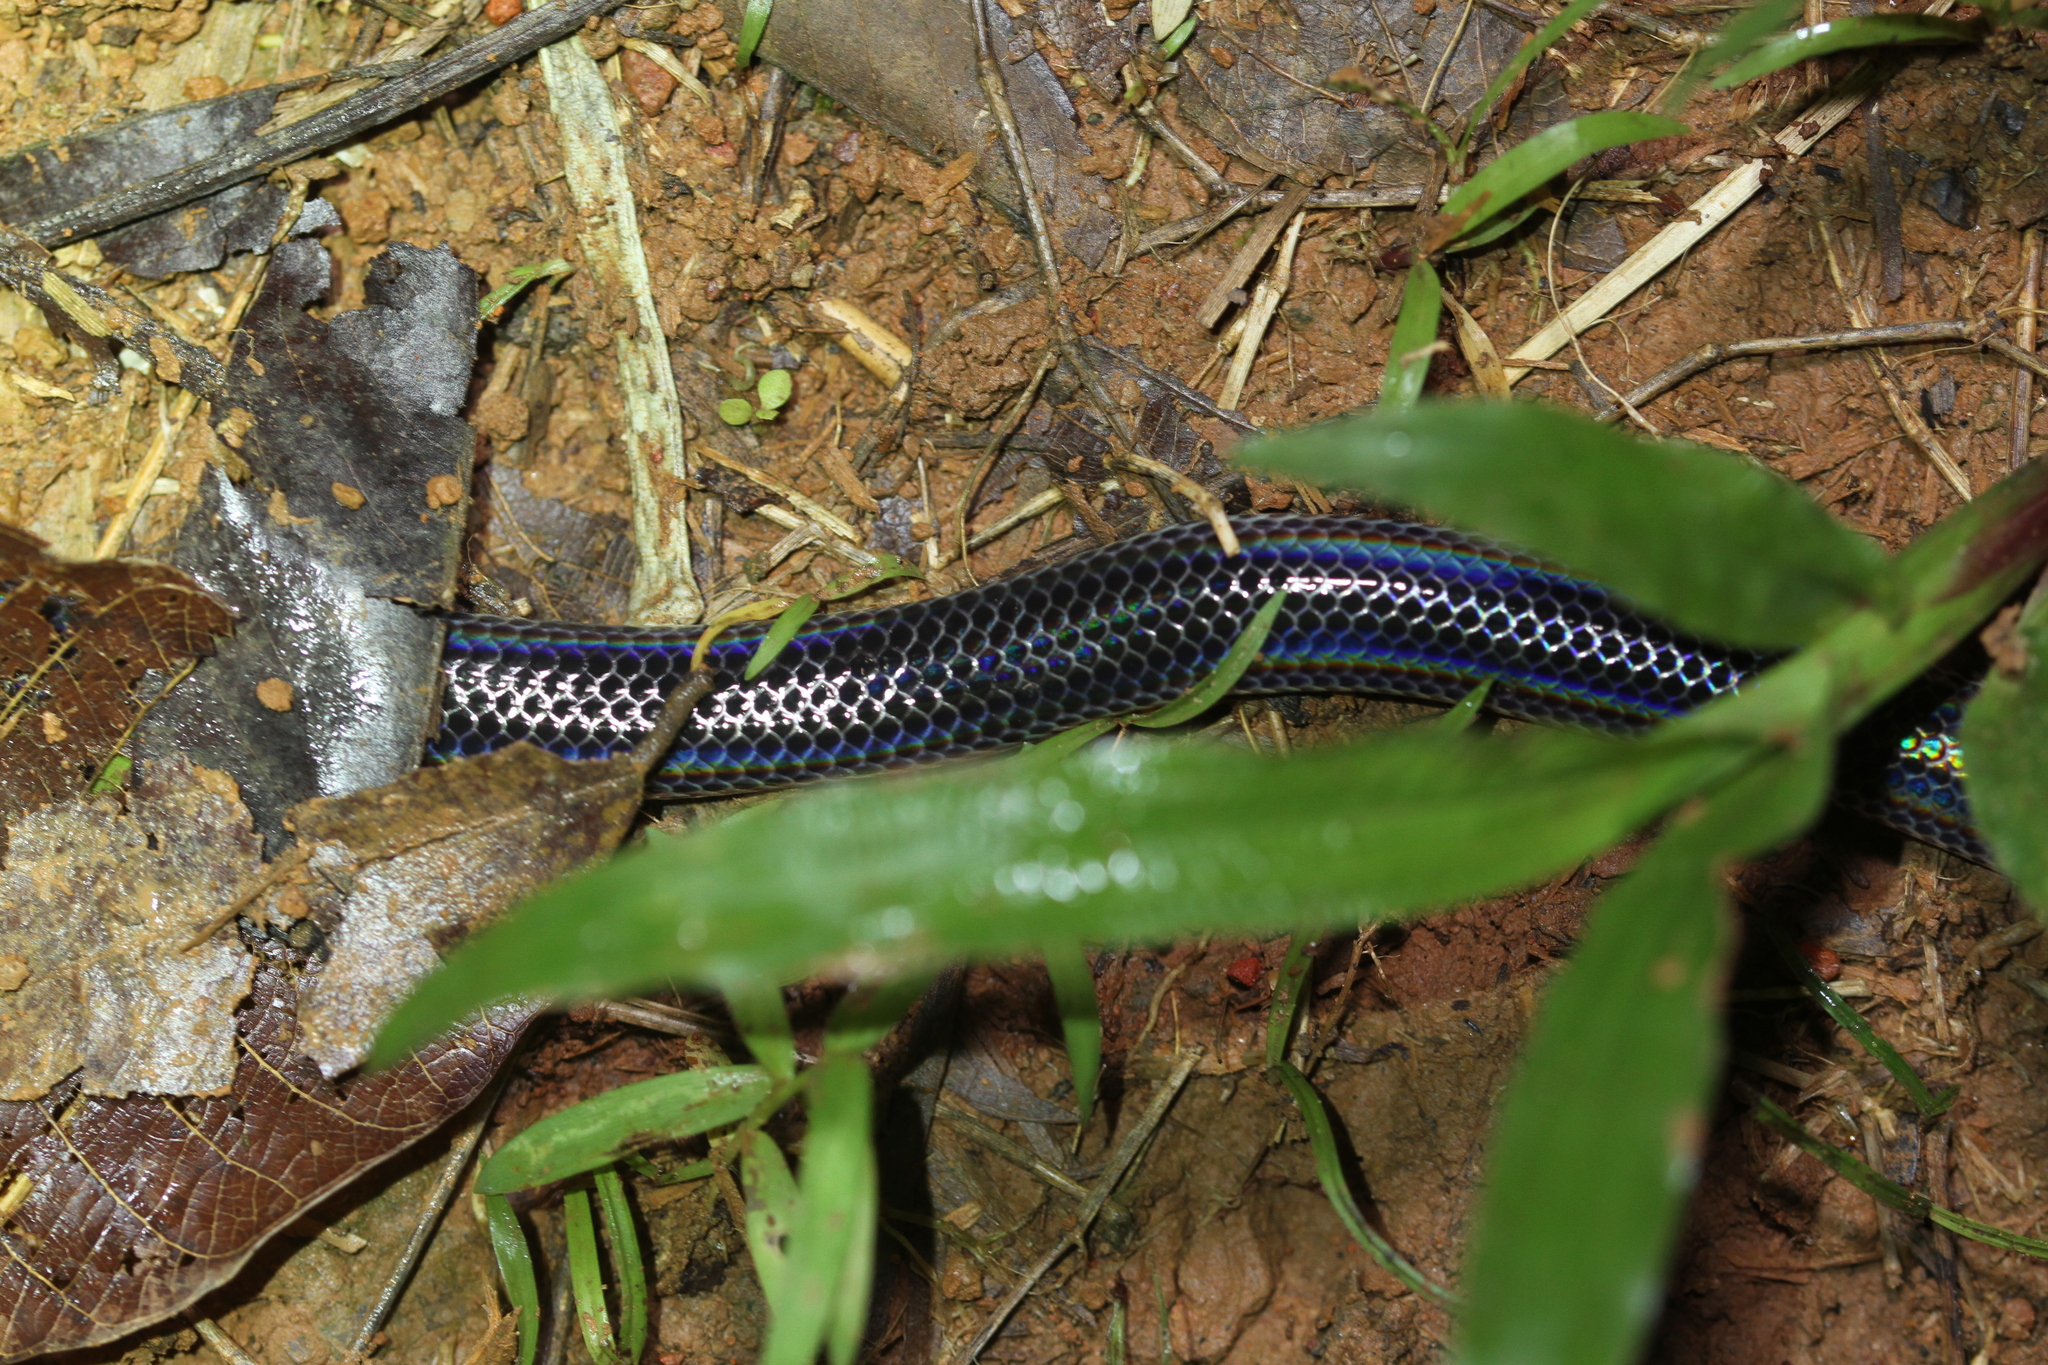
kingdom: Animalia
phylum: Chordata
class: Squamata
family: Xenopeltidae
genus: Xenopeltis
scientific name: Xenopeltis unicolor
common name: Sunbeam snake
